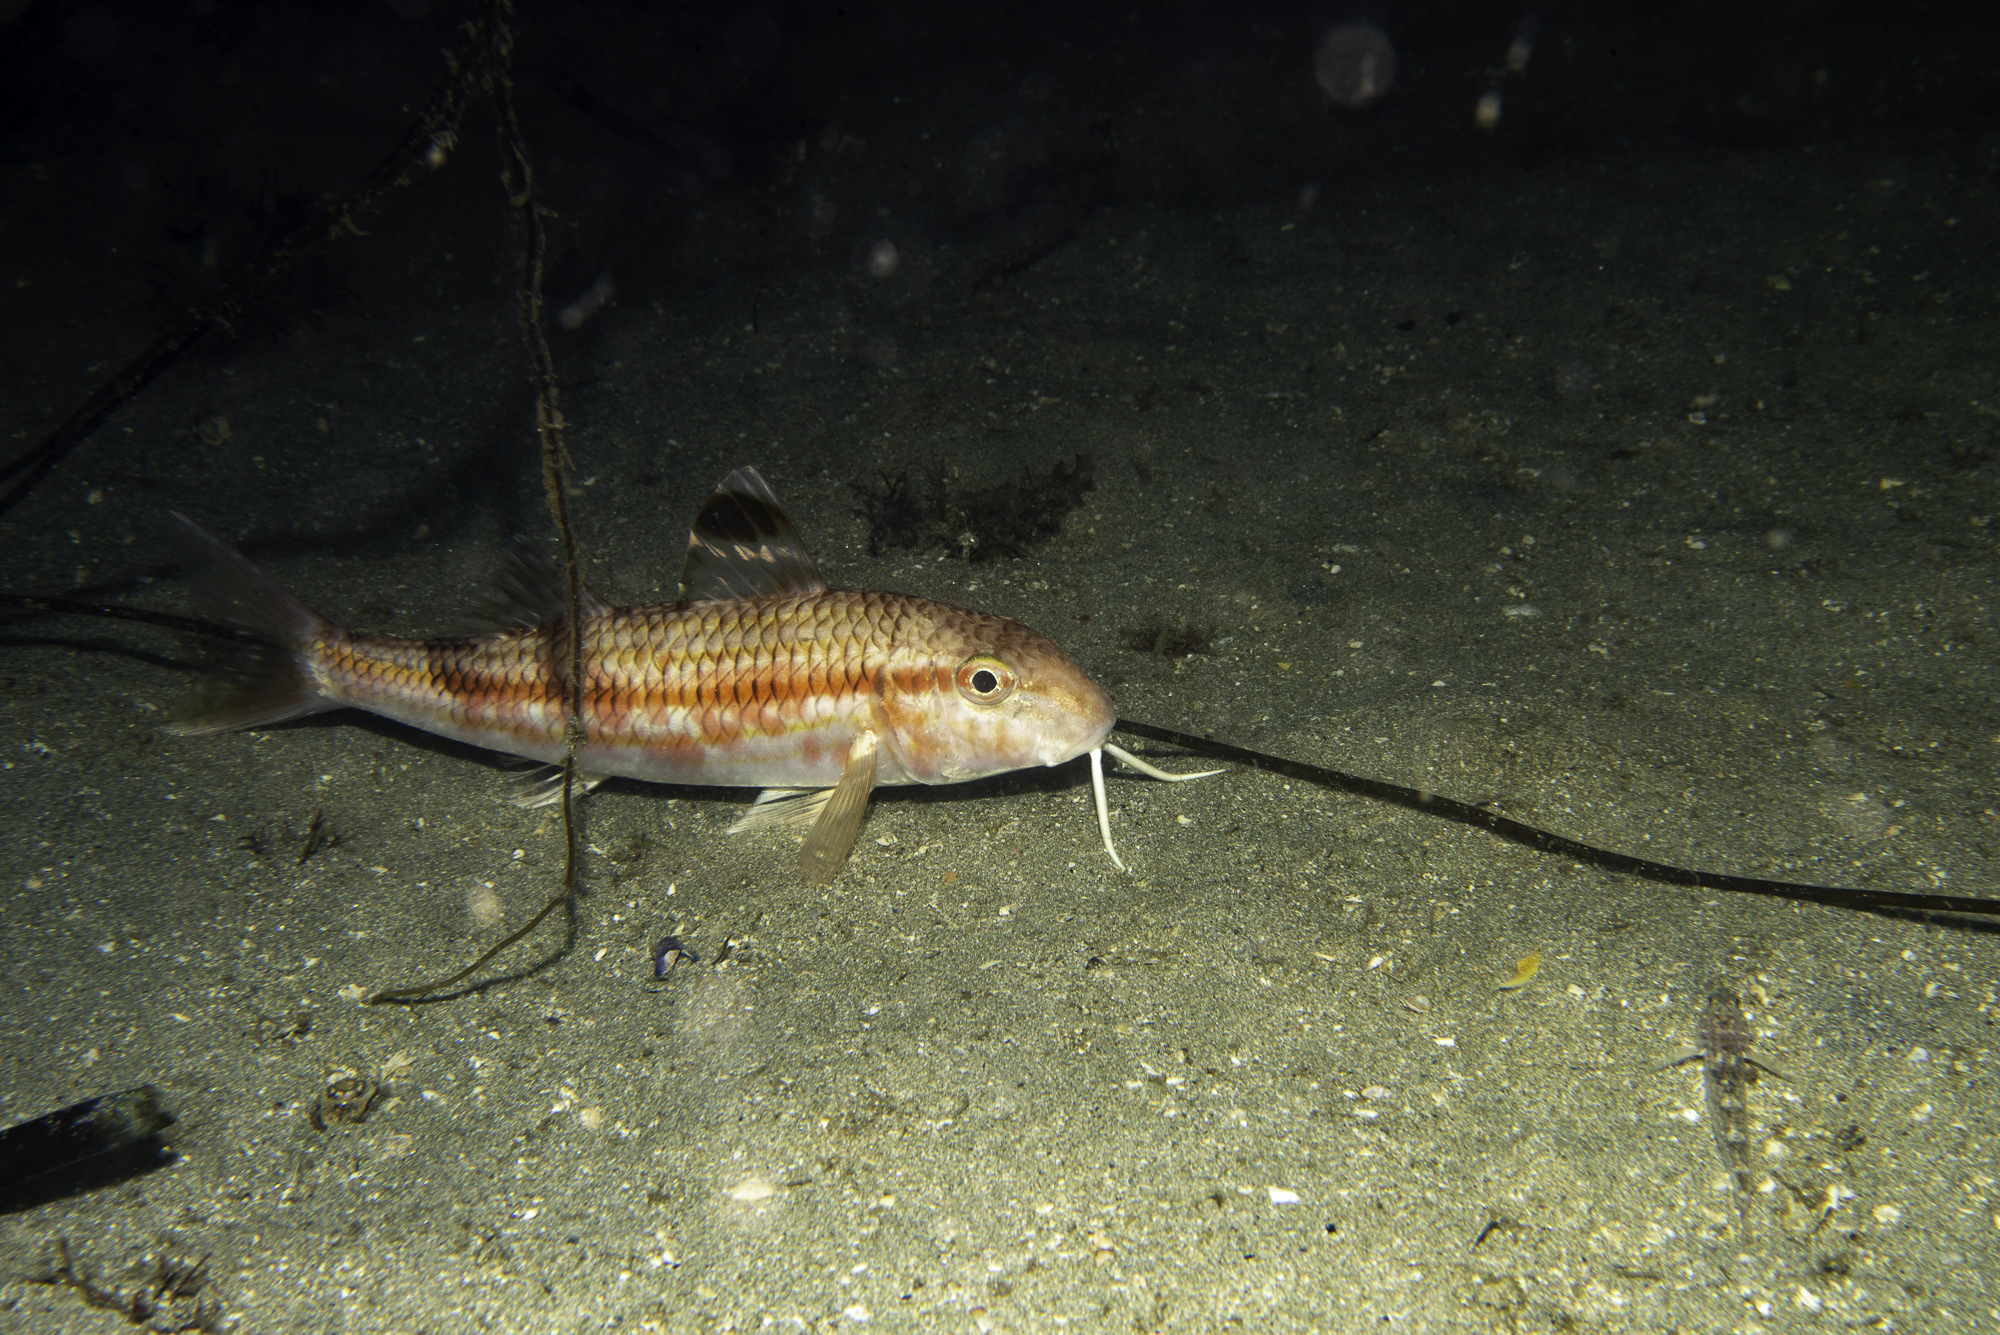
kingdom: Animalia
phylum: Chordata
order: Perciformes
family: Mullidae
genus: Mullus
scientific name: Mullus surmuletus
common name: Red mullet
